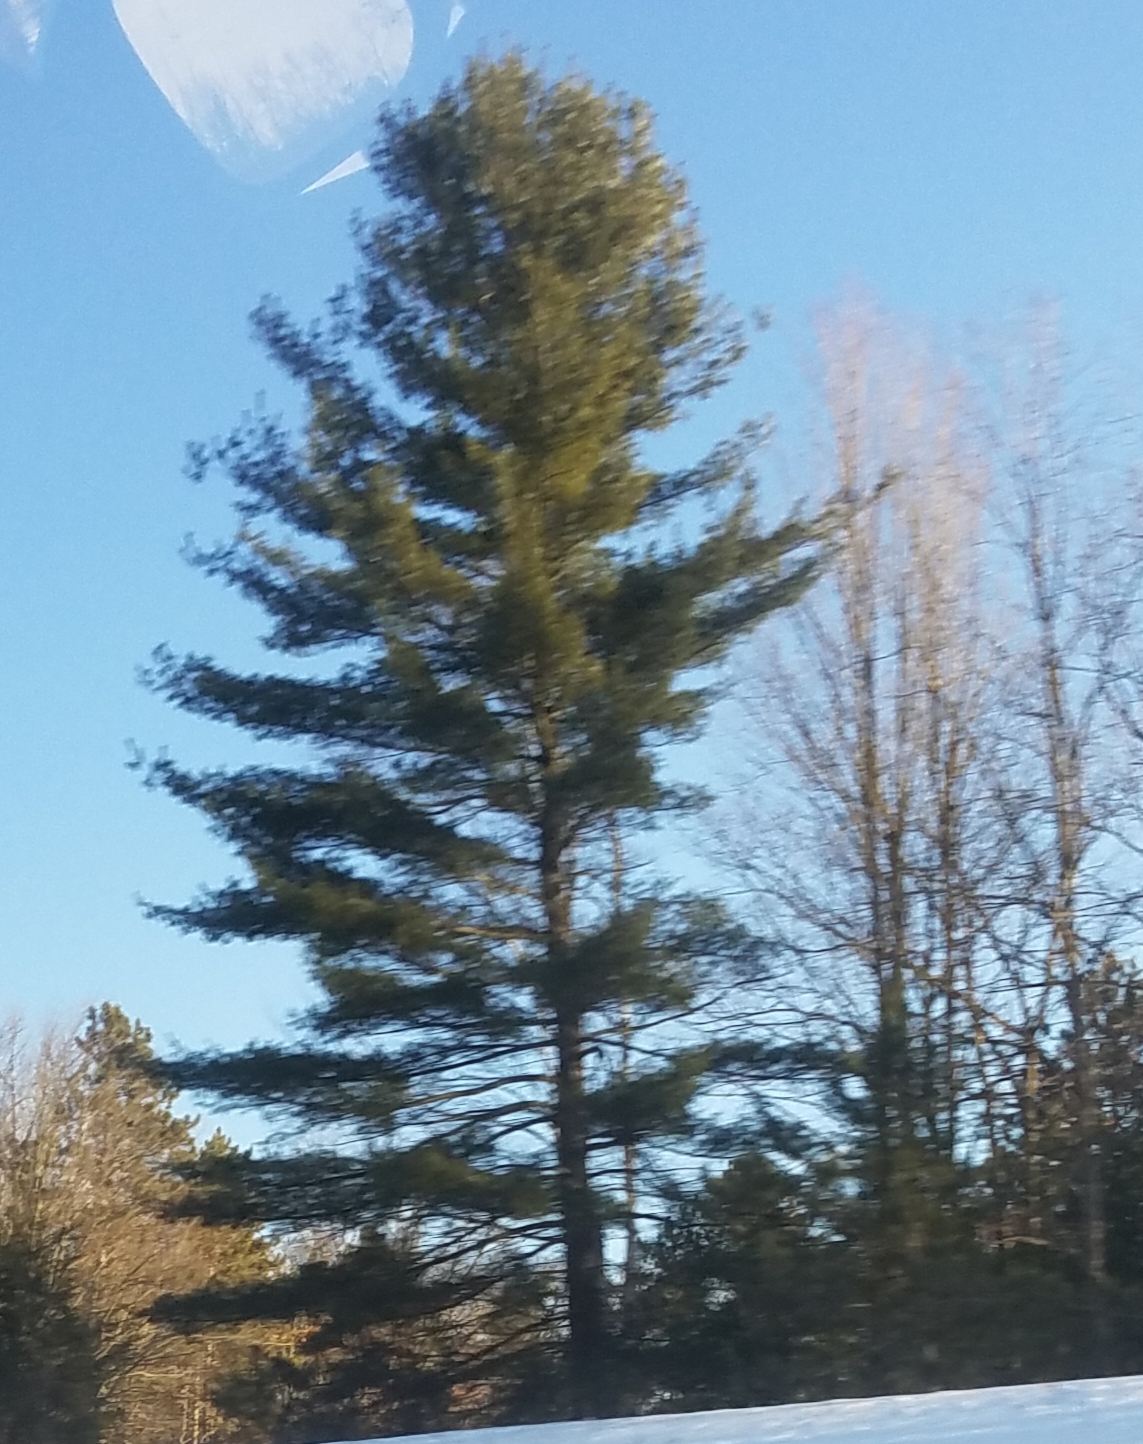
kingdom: Plantae
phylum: Tracheophyta
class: Pinopsida
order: Pinales
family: Pinaceae
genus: Pinus
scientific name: Pinus strobus
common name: Weymouth pine
